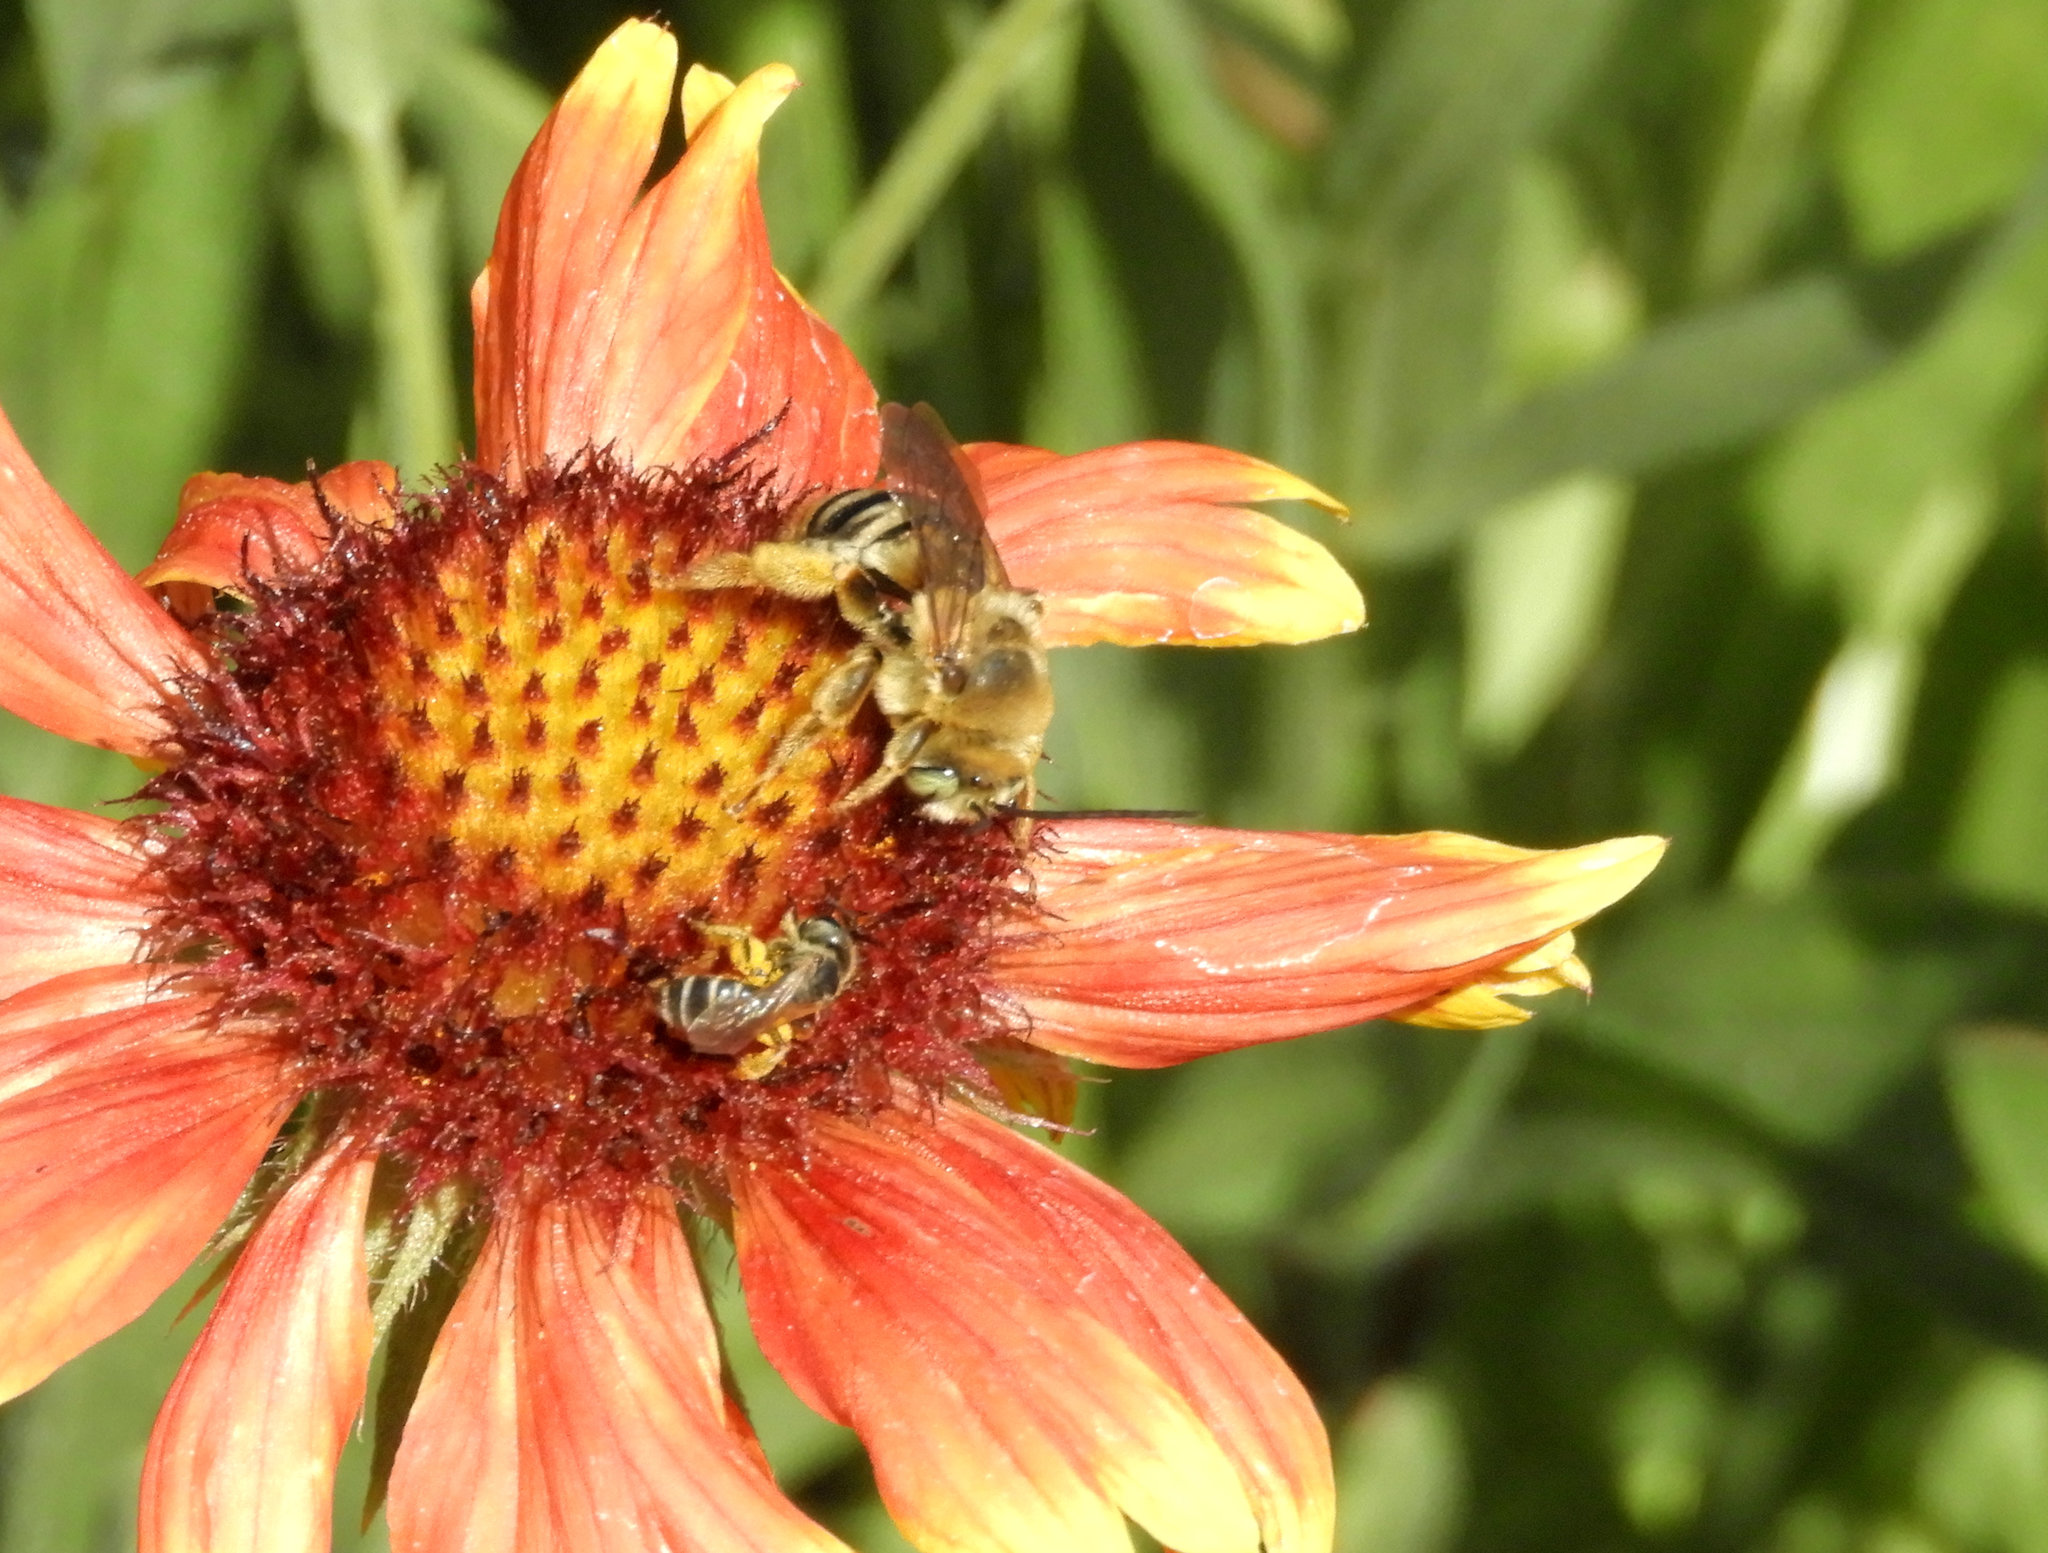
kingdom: Animalia
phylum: Arthropoda
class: Insecta
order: Hymenoptera
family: Apidae
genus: Svastra
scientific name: Svastra obliqua
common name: Oblique longhorn
